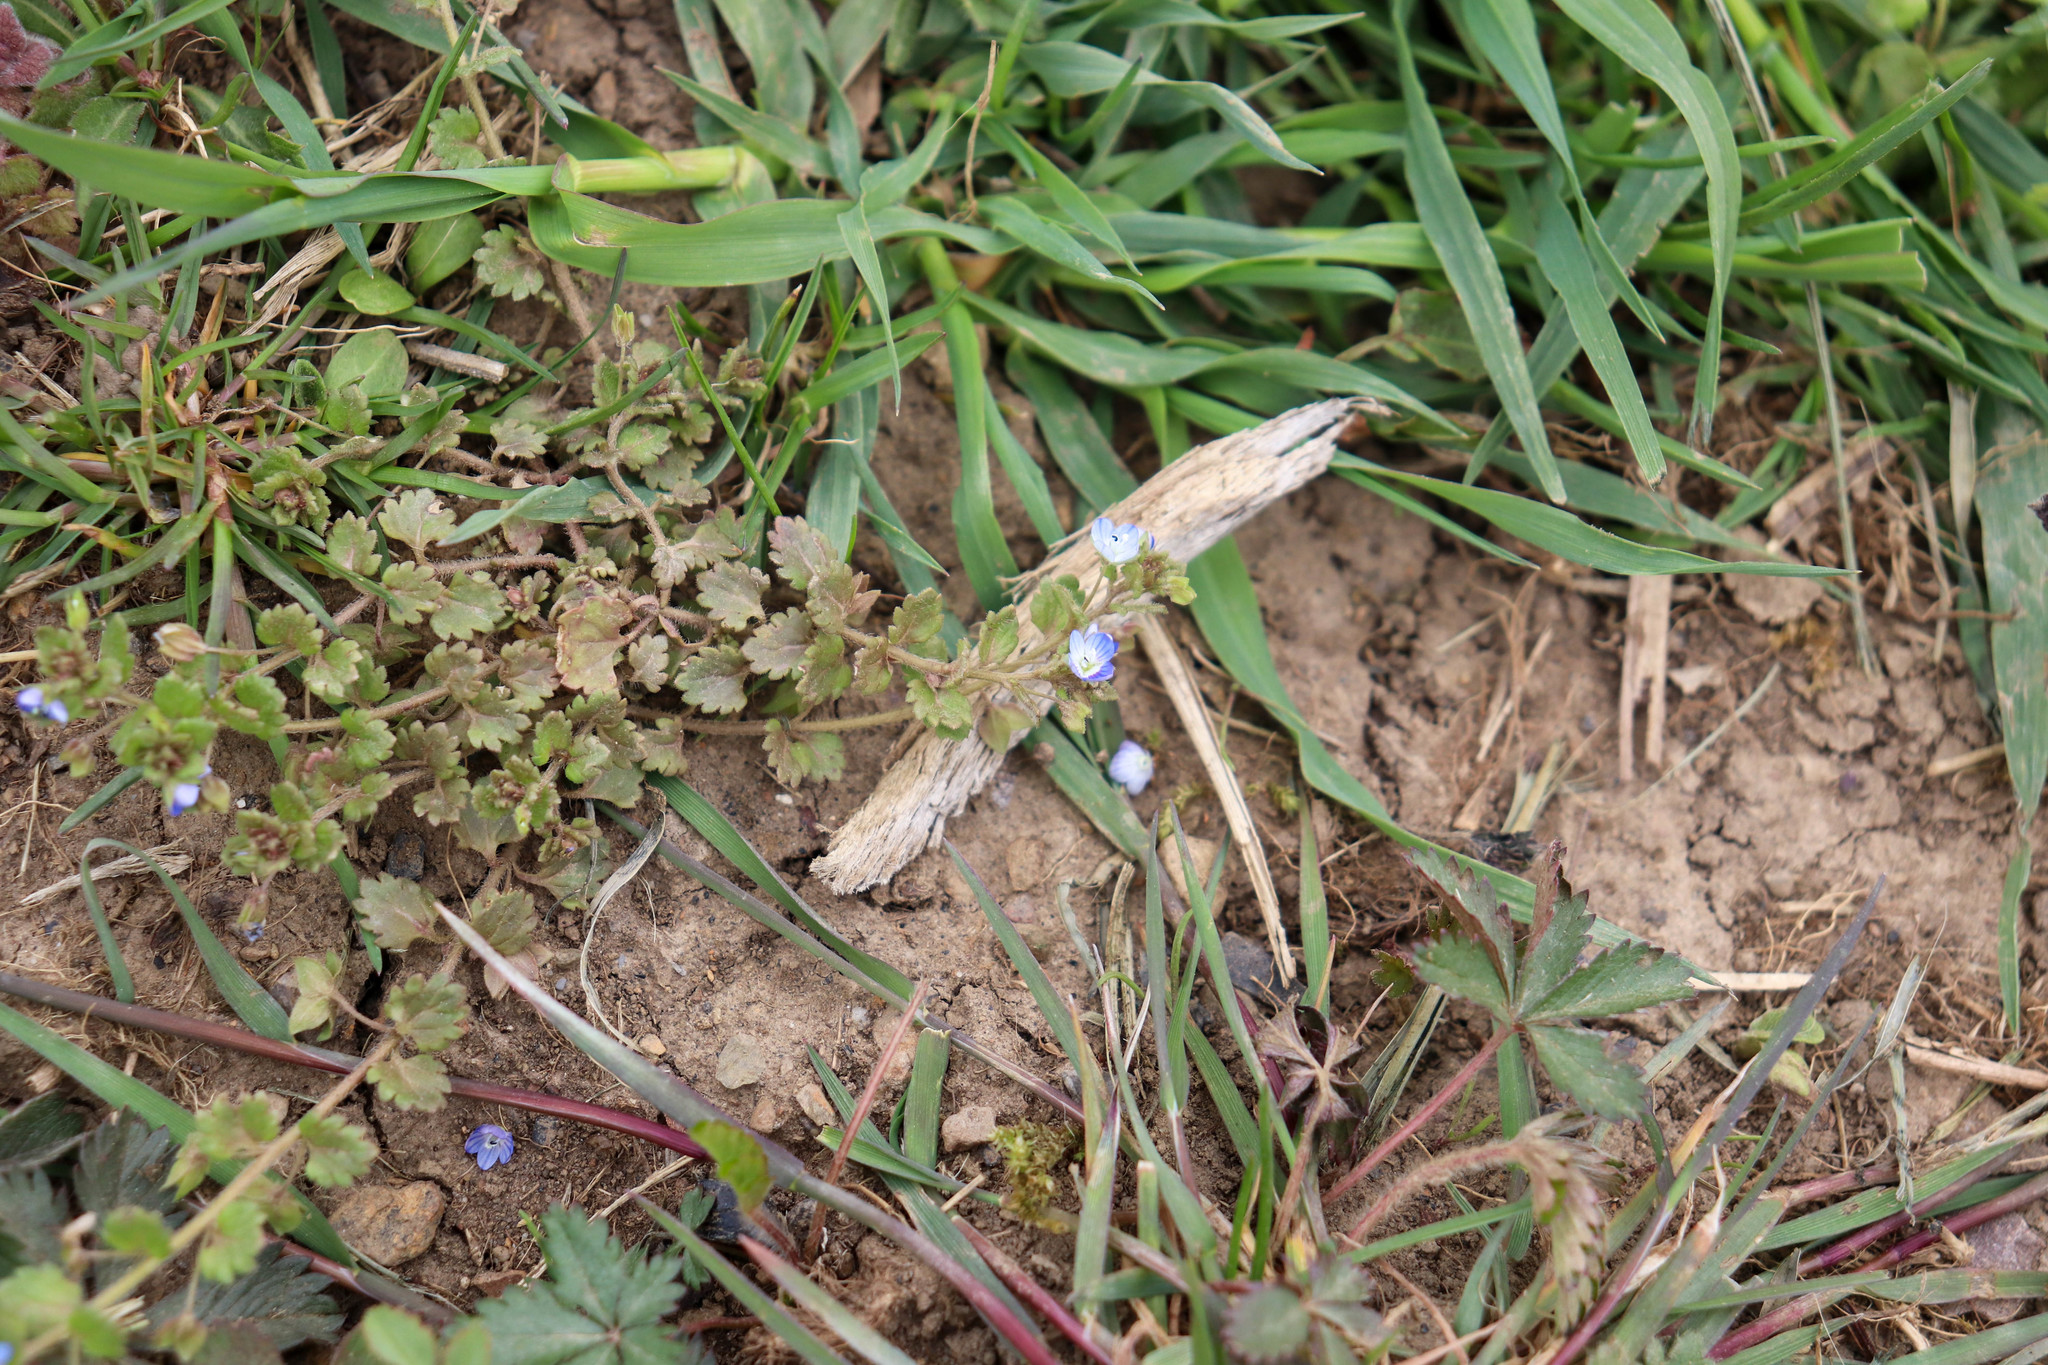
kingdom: Plantae
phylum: Tracheophyta
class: Magnoliopsida
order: Lamiales
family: Plantaginaceae
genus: Veronica
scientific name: Veronica polita
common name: Grey field-speedwell
